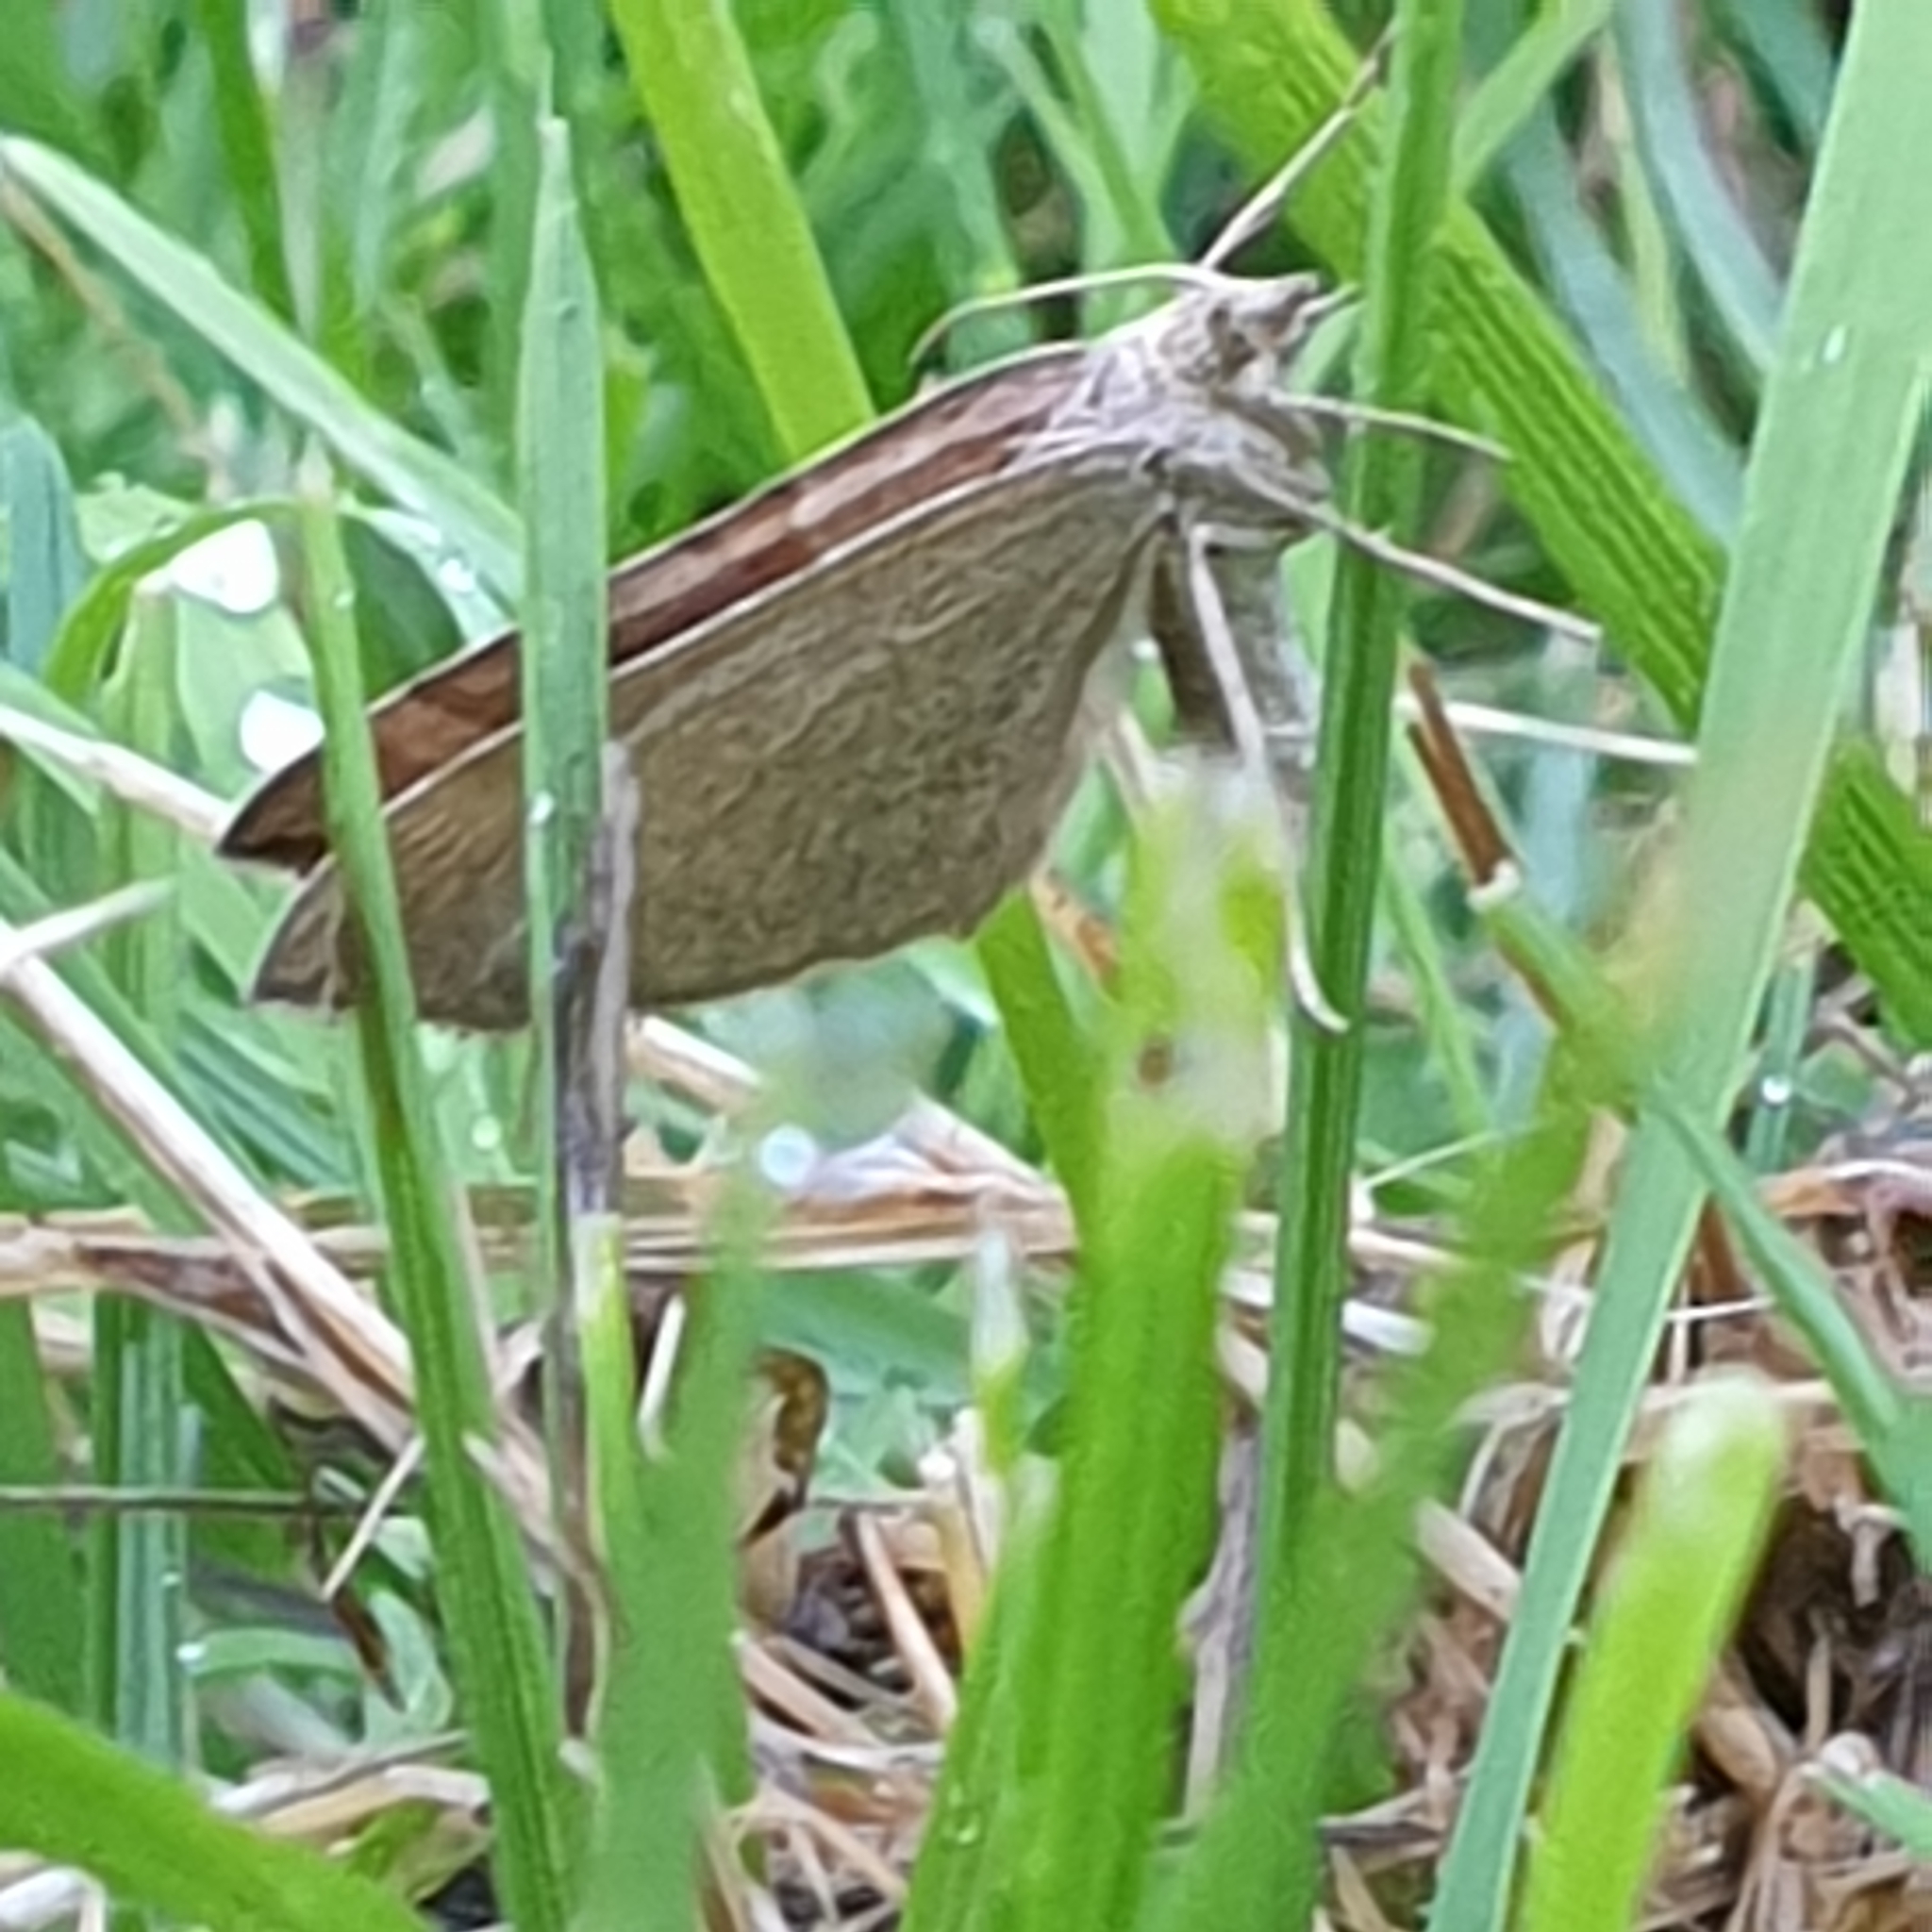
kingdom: Animalia
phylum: Arthropoda
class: Insecta
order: Lepidoptera
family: Geometridae
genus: Scotopteryx
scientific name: Scotopteryx chenopodiata
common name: Shaded broad-bar
